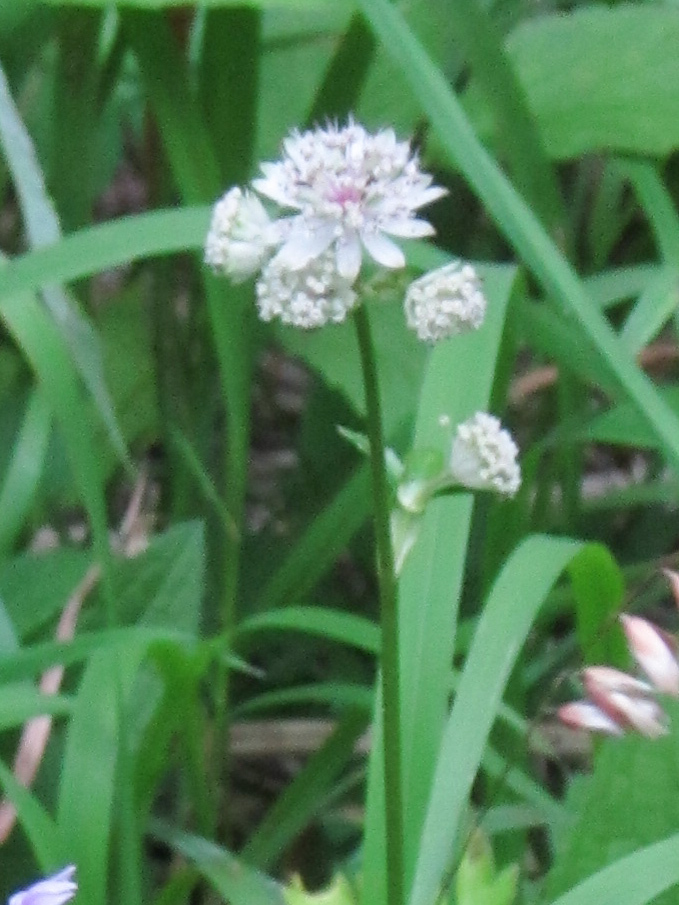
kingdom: Plantae
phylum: Tracheophyta
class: Magnoliopsida
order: Apiales
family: Apiaceae
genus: Astrantia
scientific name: Astrantia major
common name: Greater masterwort
